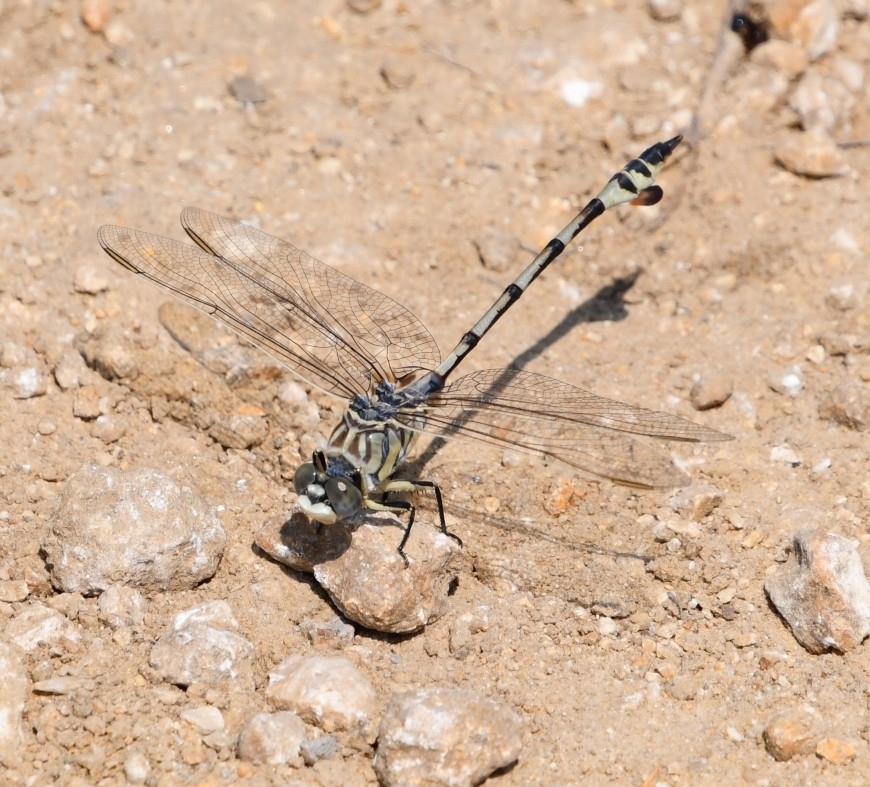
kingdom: Animalia
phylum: Arthropoda
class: Insecta
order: Odonata
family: Gomphidae
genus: Lindenia
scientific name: Lindenia tetraphylla
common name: Bladetail
